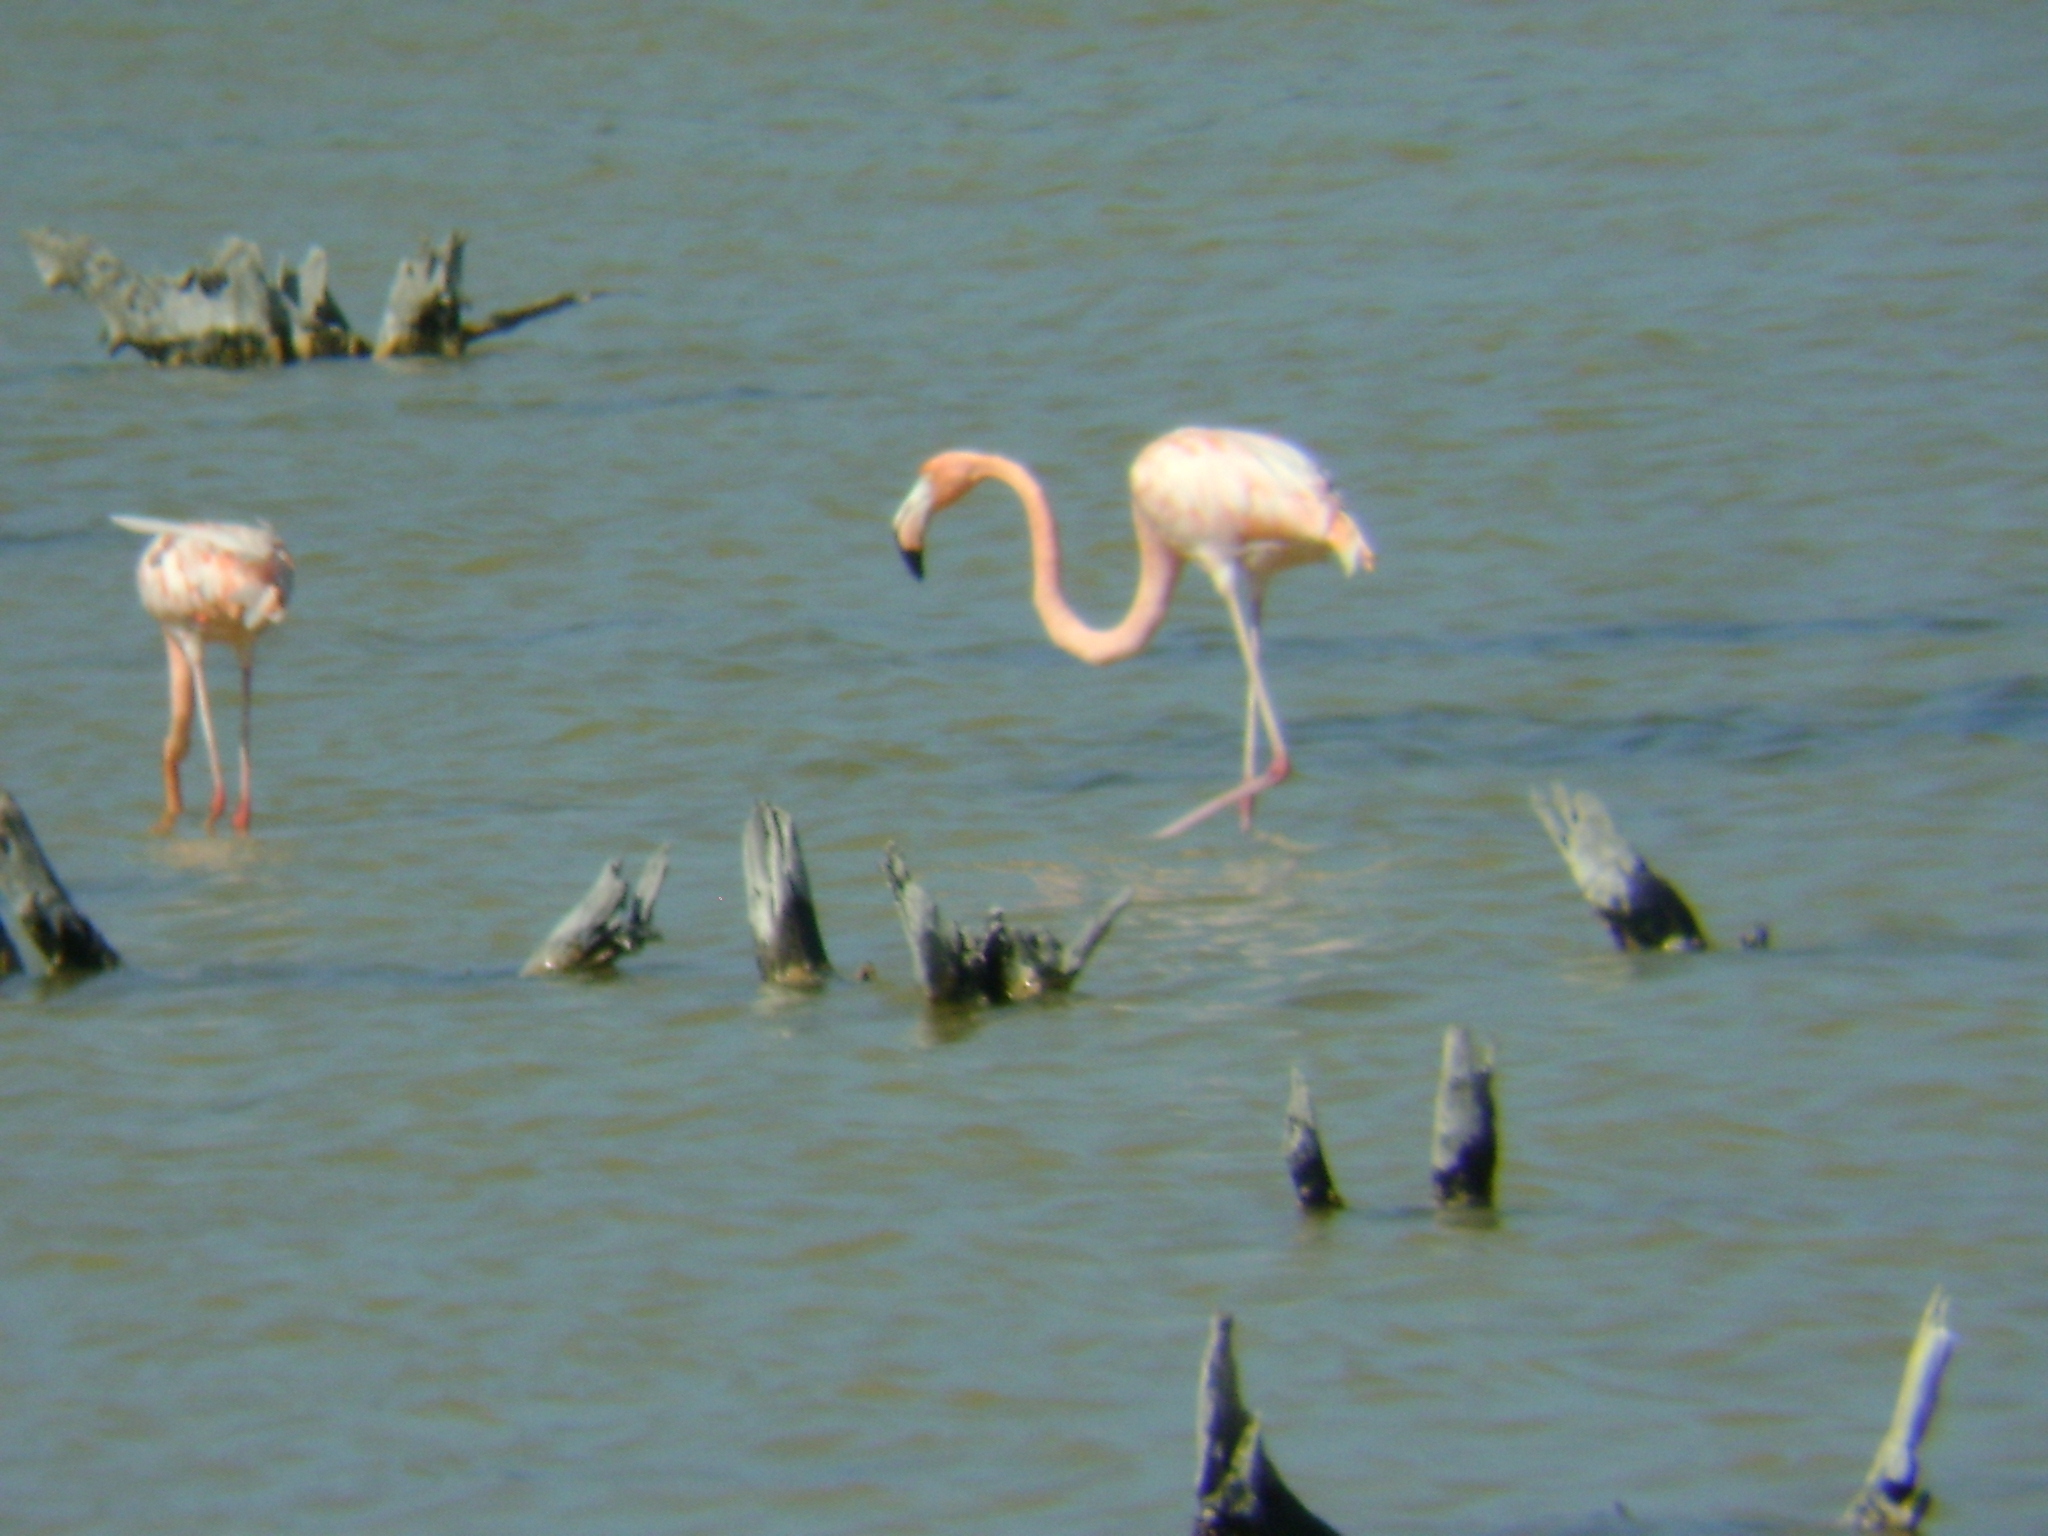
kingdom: Animalia
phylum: Chordata
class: Aves
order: Phoenicopteriformes
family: Phoenicopteridae
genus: Phoenicopterus
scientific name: Phoenicopterus ruber
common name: American flamingo
